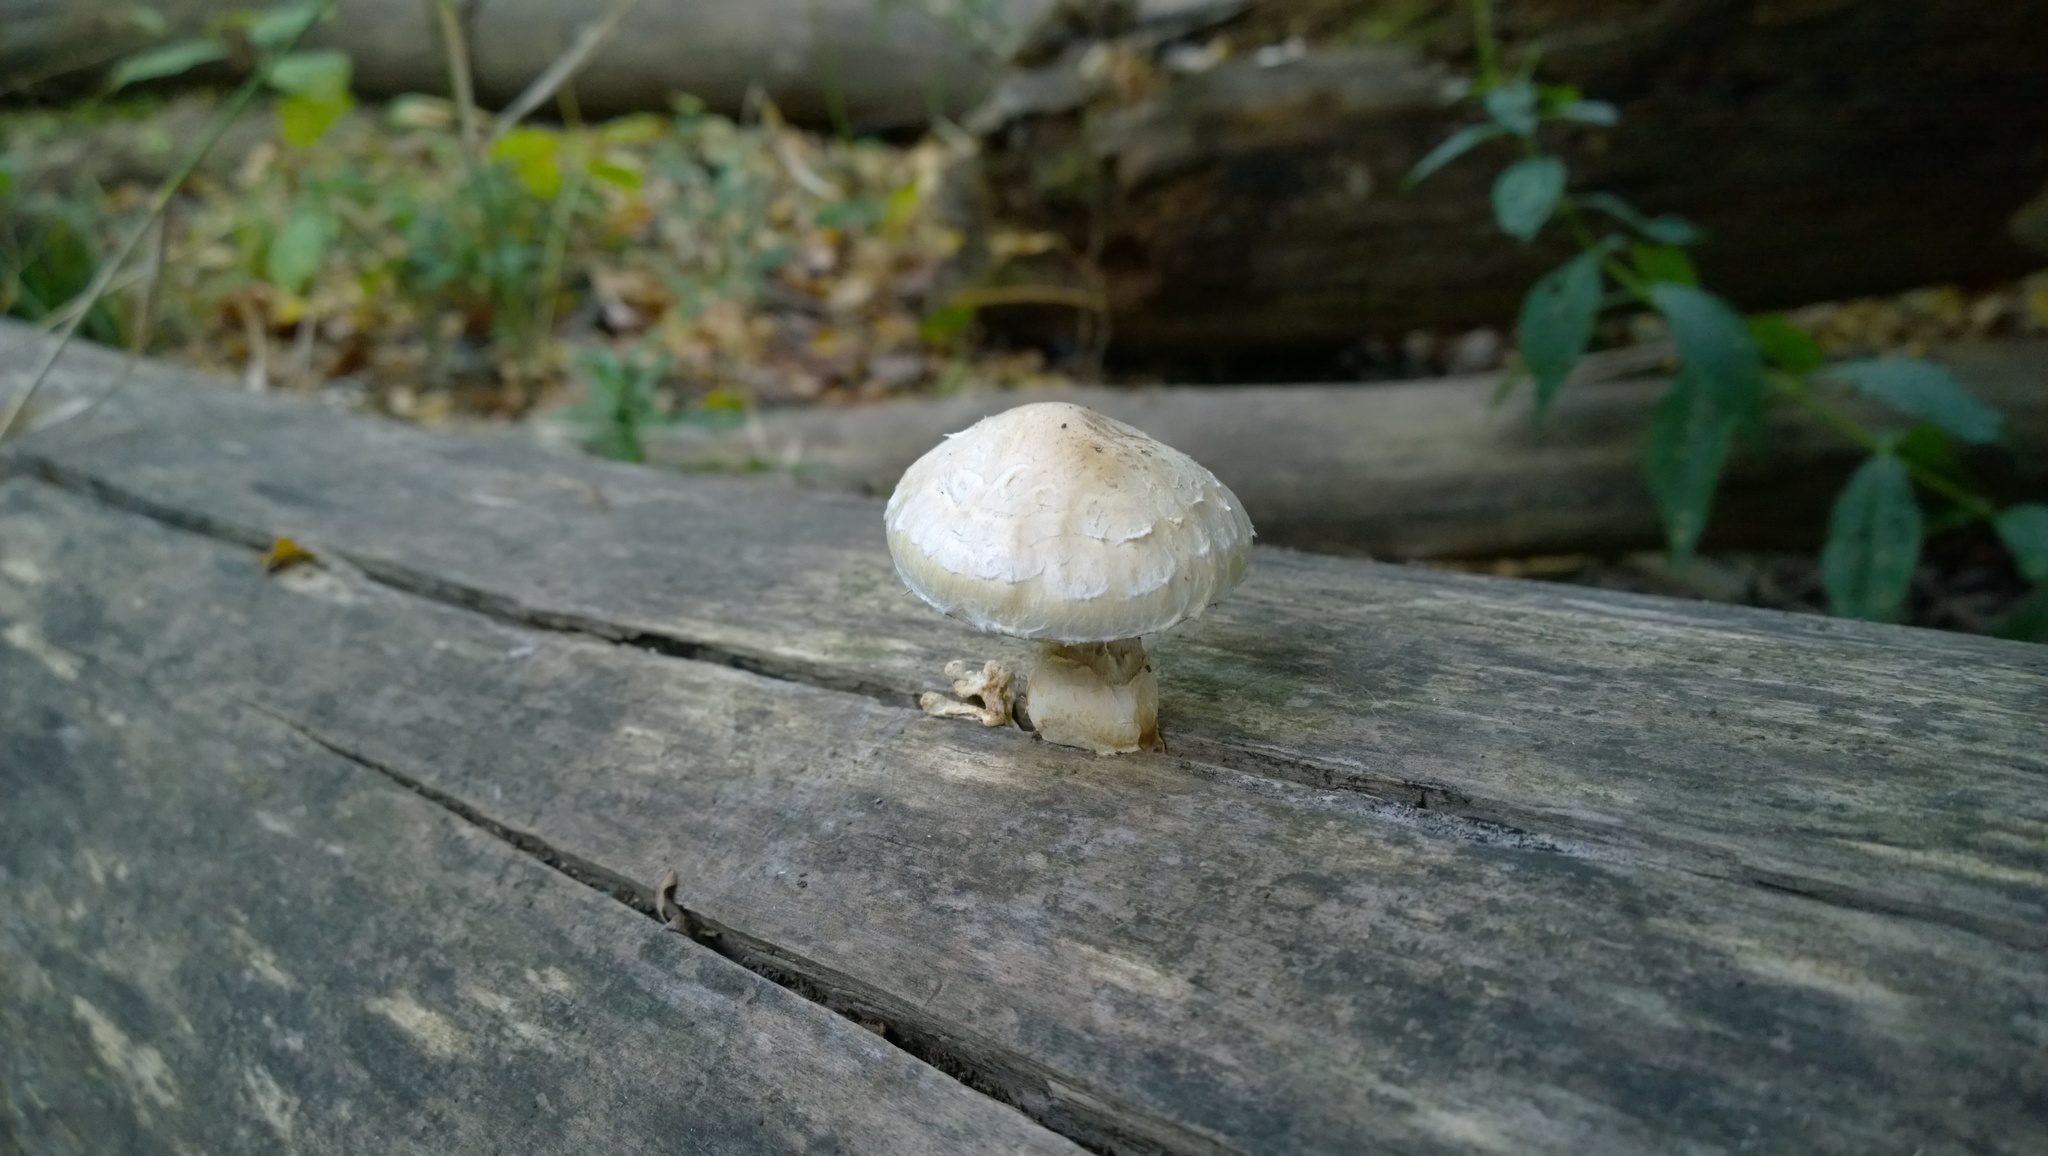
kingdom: Fungi
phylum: Basidiomycota
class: Agaricomycetes
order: Agaricales
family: Strophariaceae
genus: Pholiota
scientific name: Pholiota populnea
